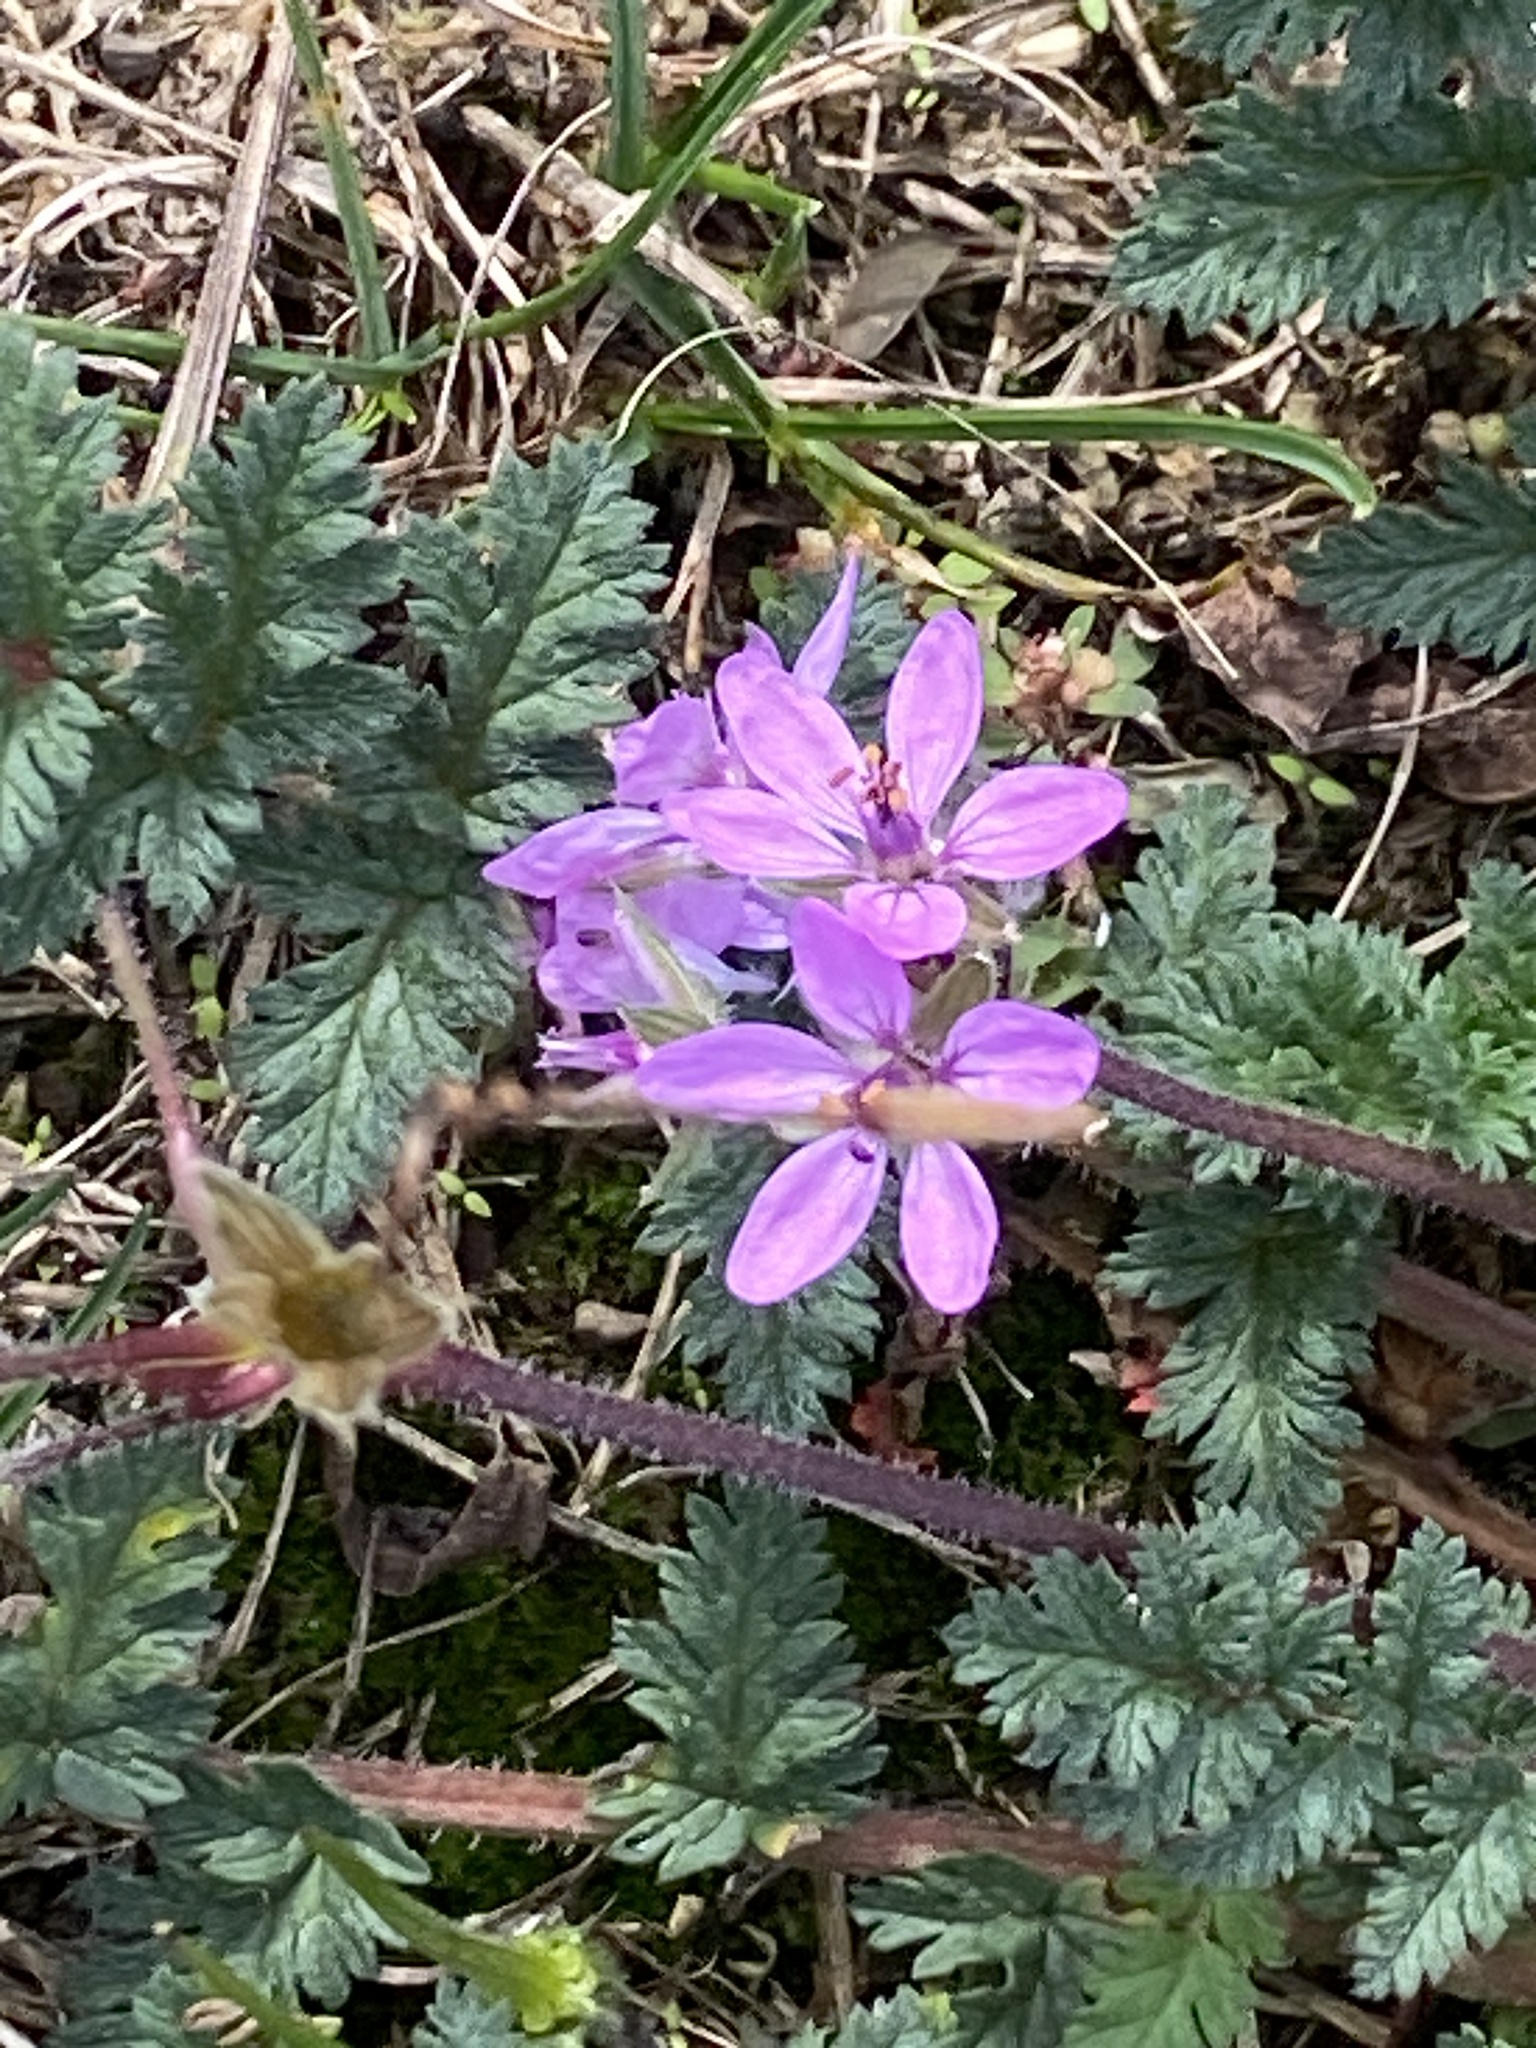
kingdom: Plantae
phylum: Tracheophyta
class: Magnoliopsida
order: Geraniales
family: Geraniaceae
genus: Erodium
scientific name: Erodium cicutarium
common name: Common stork's-bill
